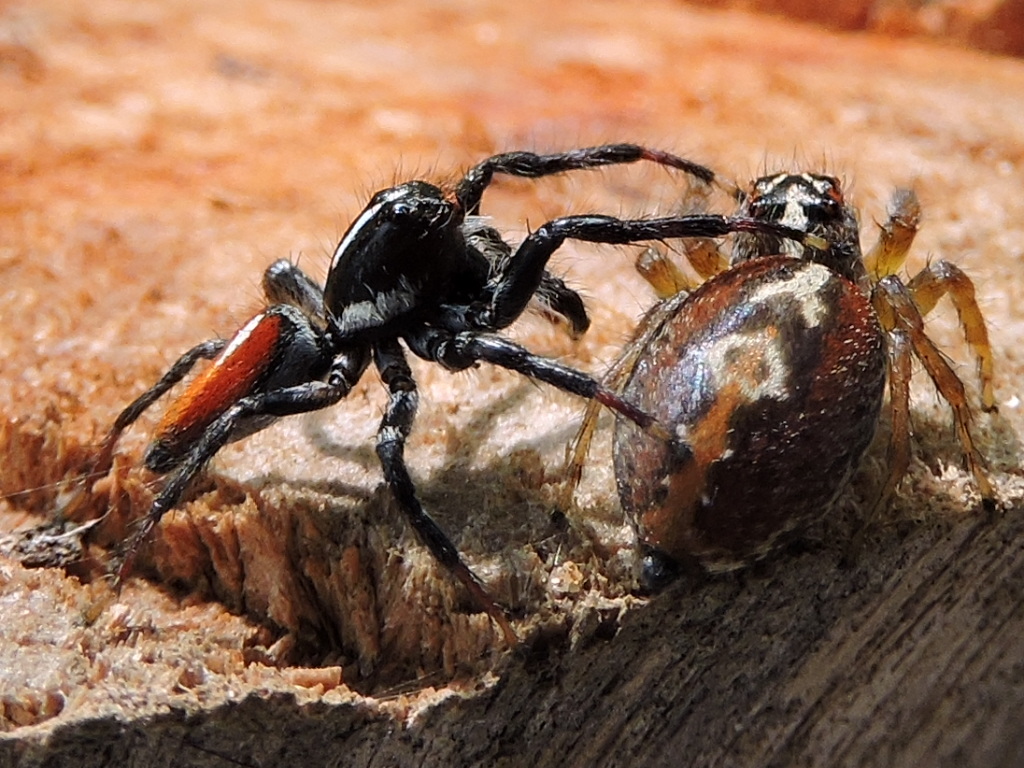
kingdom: Animalia
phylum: Arthropoda
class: Arachnida
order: Araneae
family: Salticidae
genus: Frigga
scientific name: Frigga quintensis
